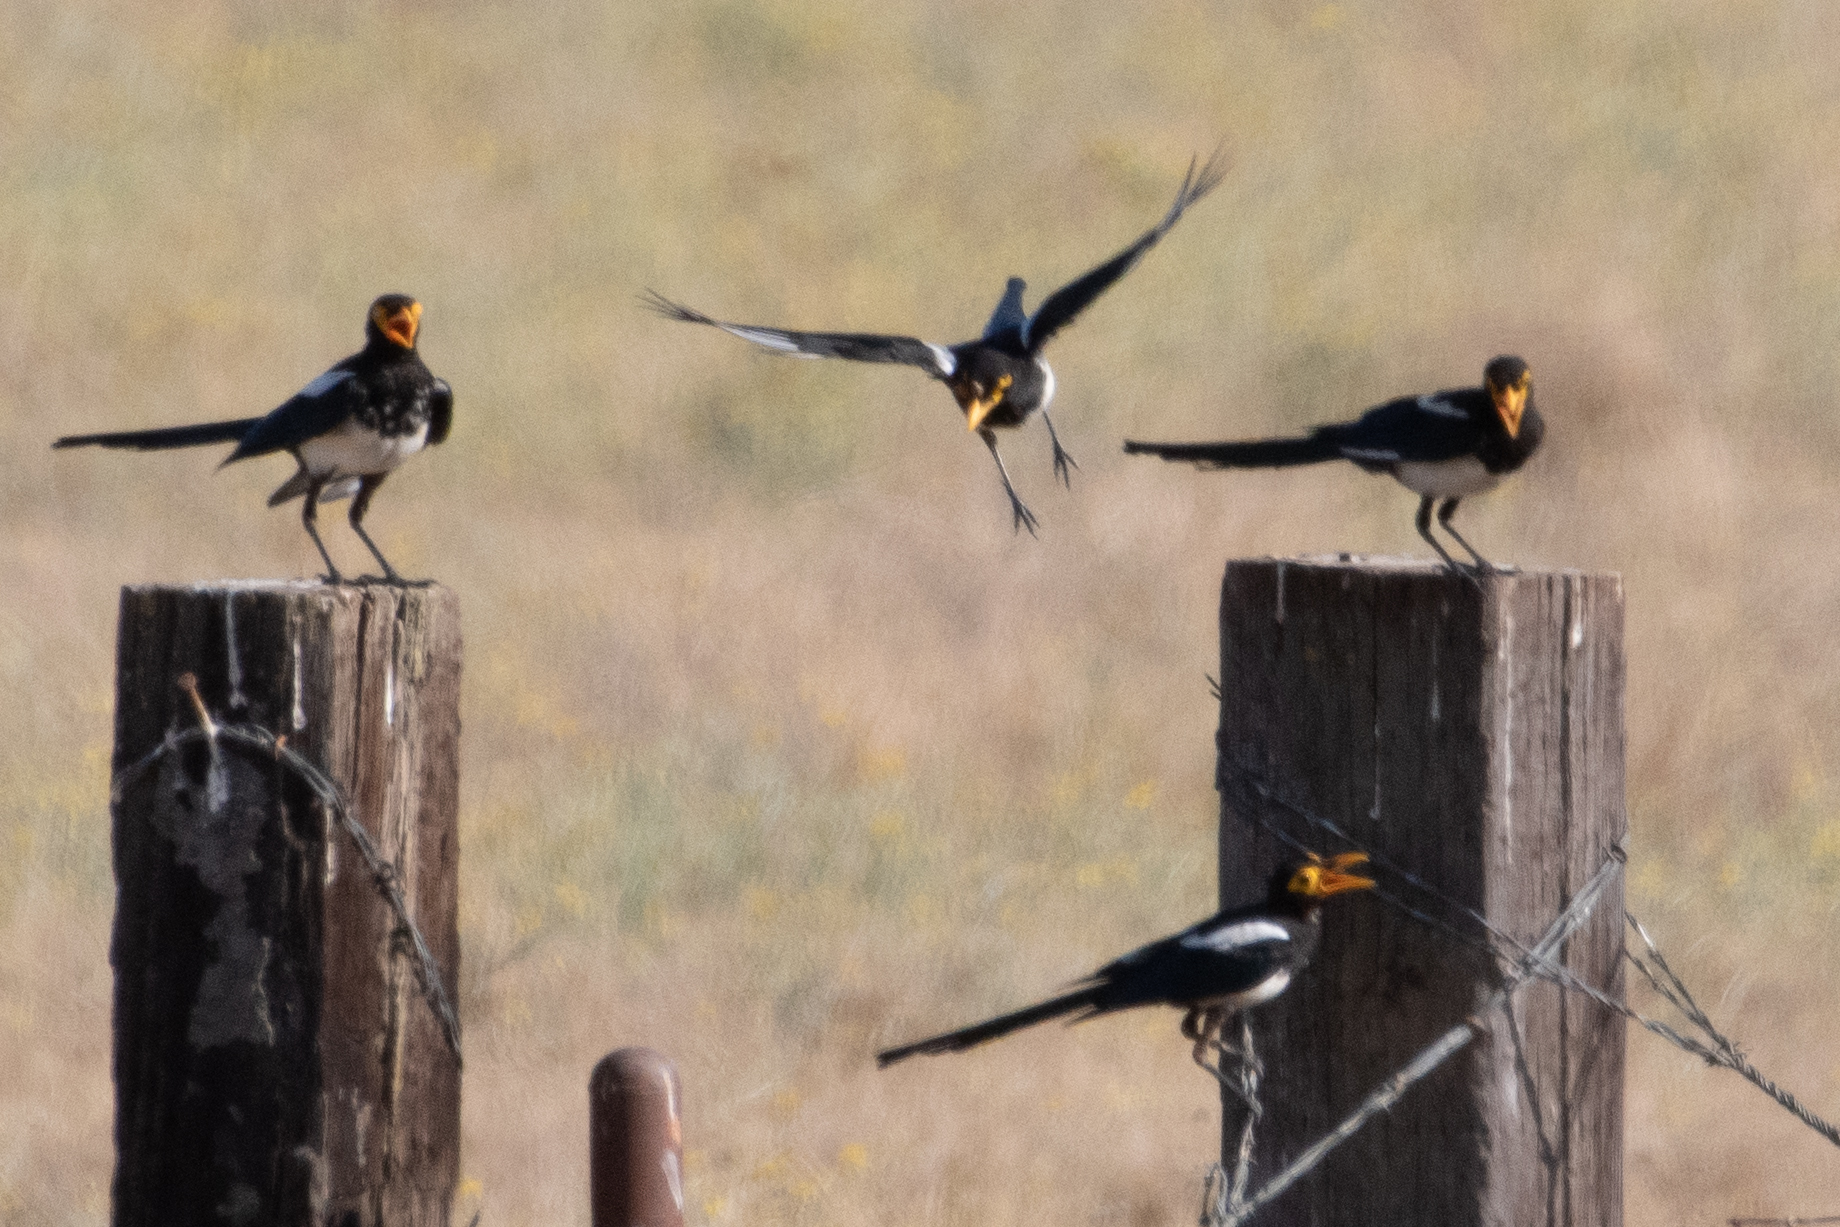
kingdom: Animalia
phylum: Chordata
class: Aves
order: Passeriformes
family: Corvidae
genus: Pica
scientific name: Pica nuttalli
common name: Yellow-billed magpie
